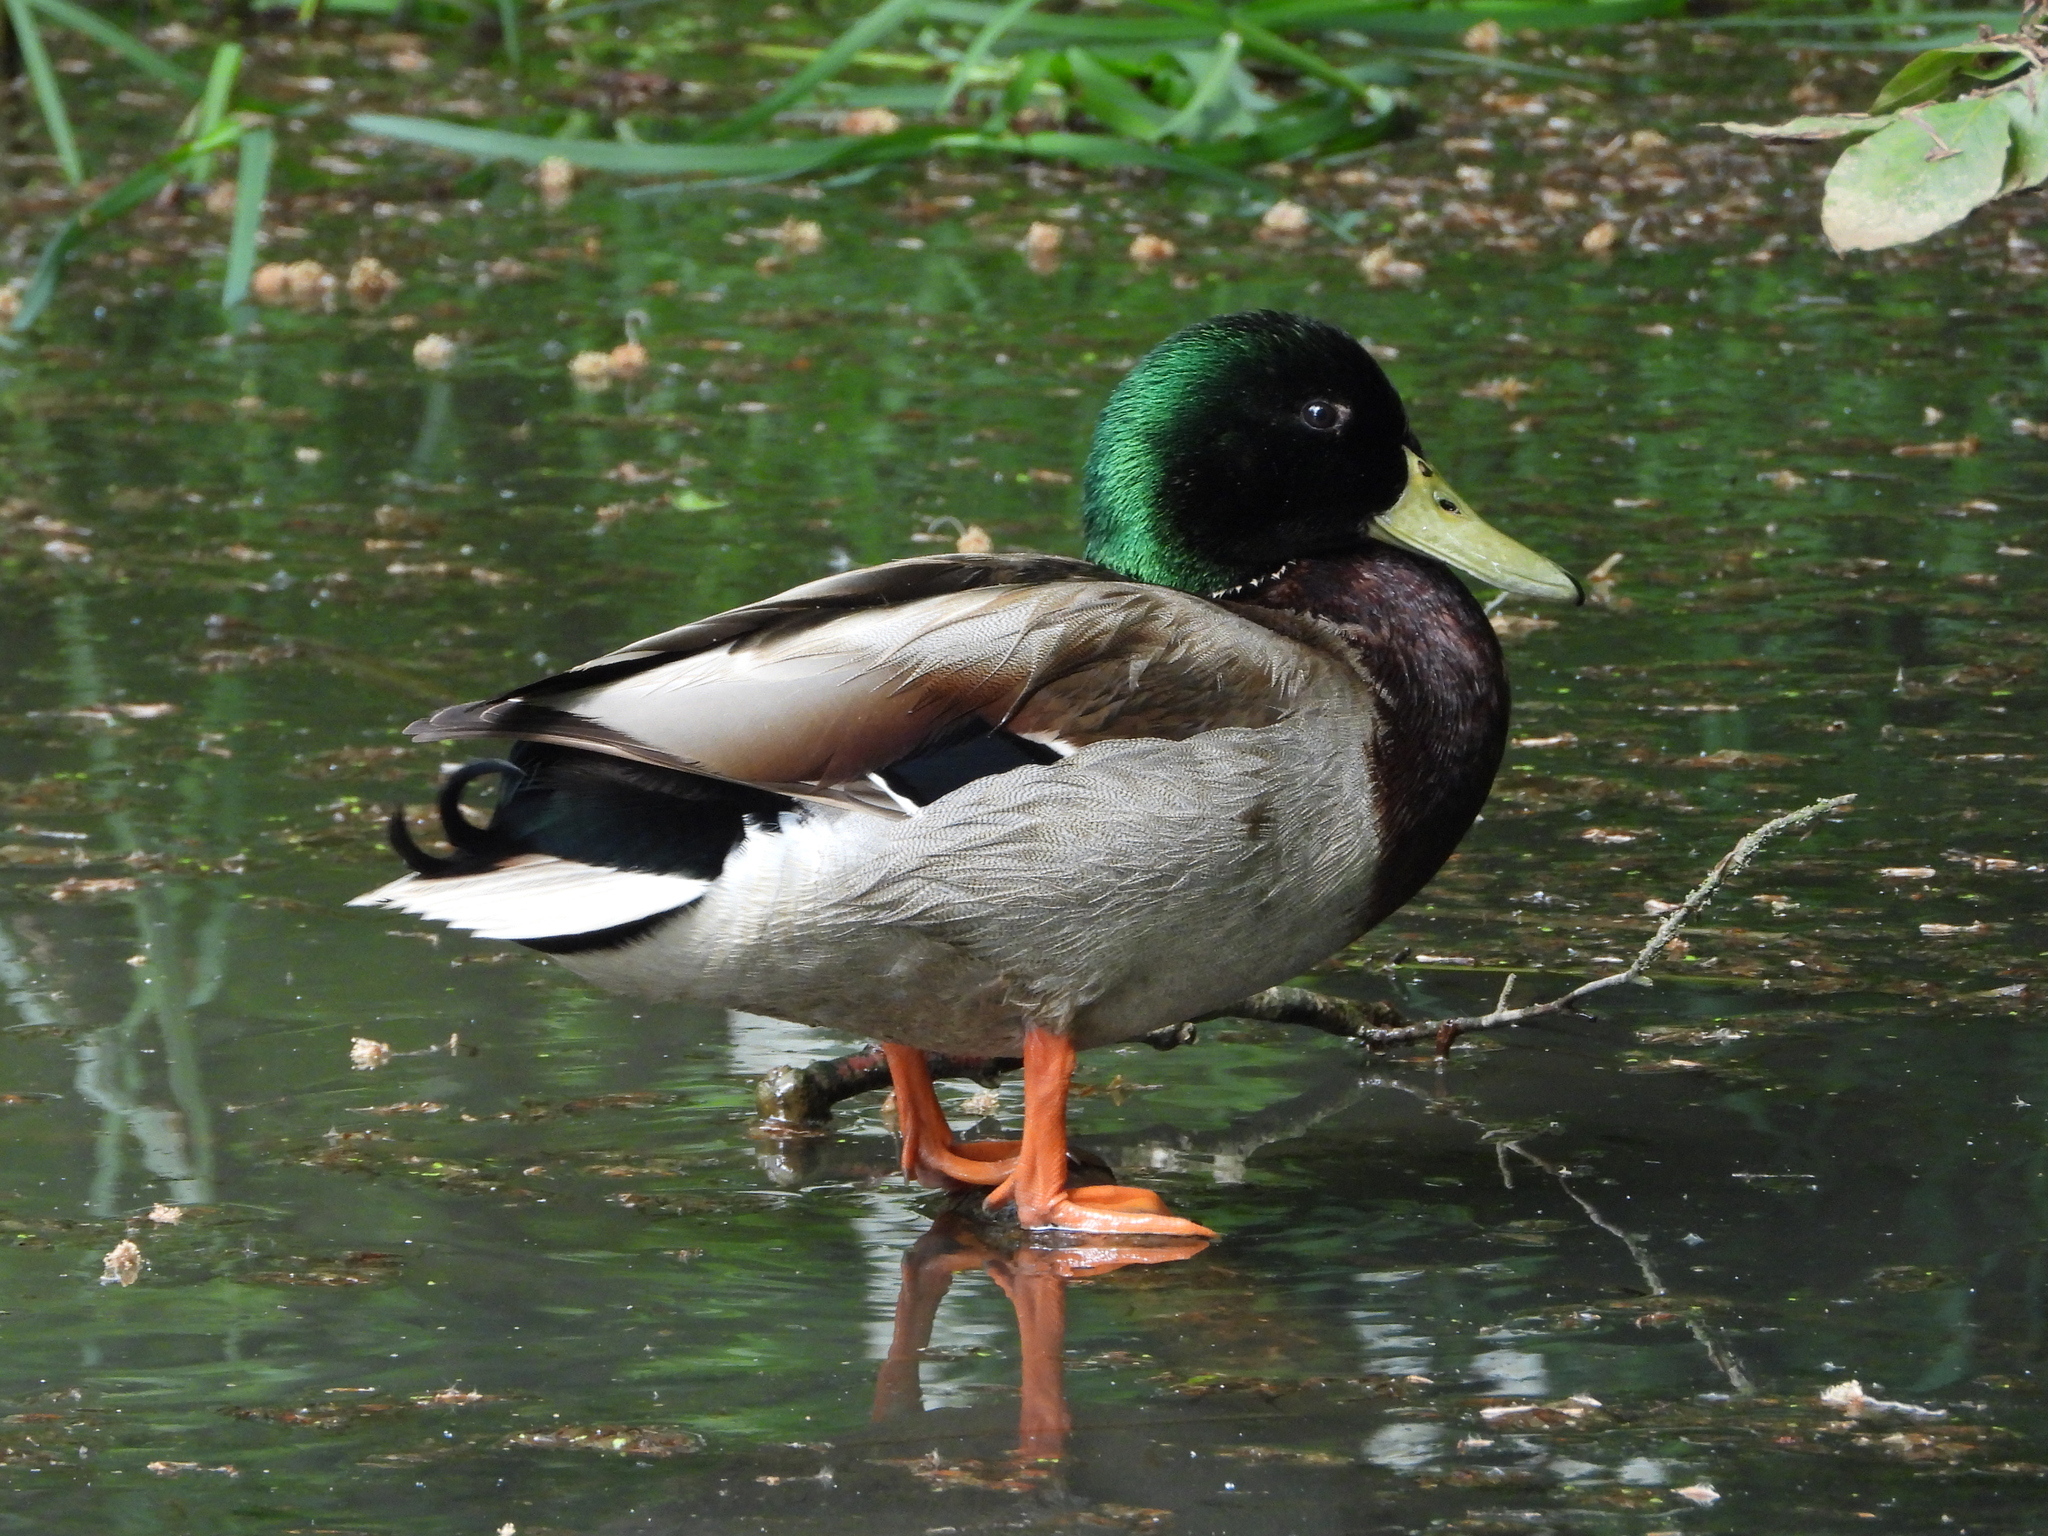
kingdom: Animalia
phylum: Chordata
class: Aves
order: Anseriformes
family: Anatidae
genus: Anas
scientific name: Anas platyrhynchos
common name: Mallard
